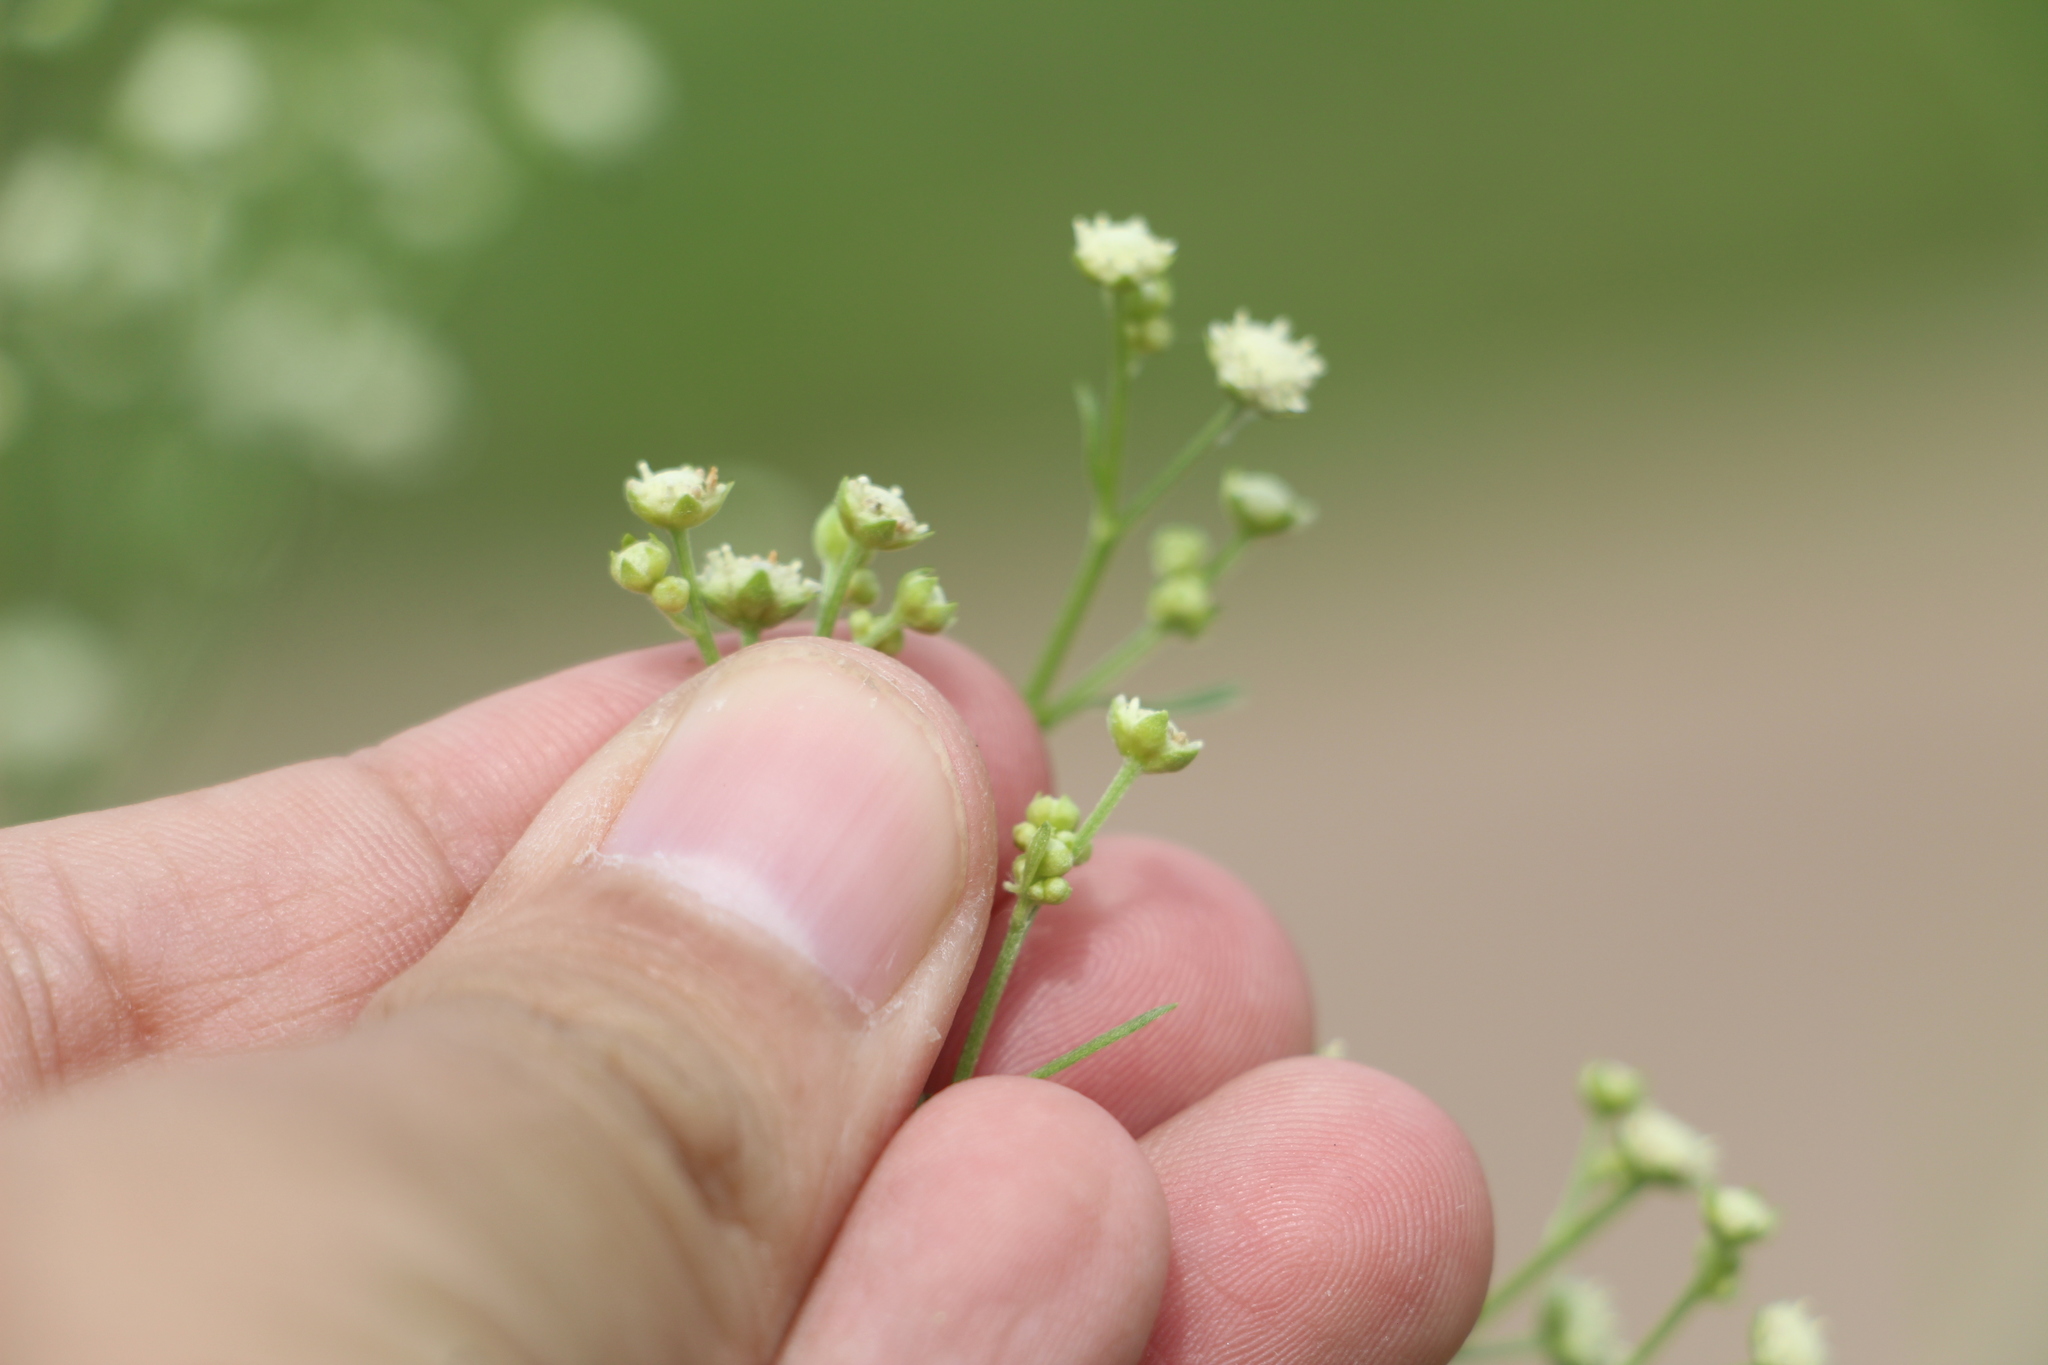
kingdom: Plantae
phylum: Tracheophyta
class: Magnoliopsida
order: Asterales
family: Asteraceae
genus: Parthenium
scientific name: Parthenium hysterophorus
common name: Santa maria feverfew
